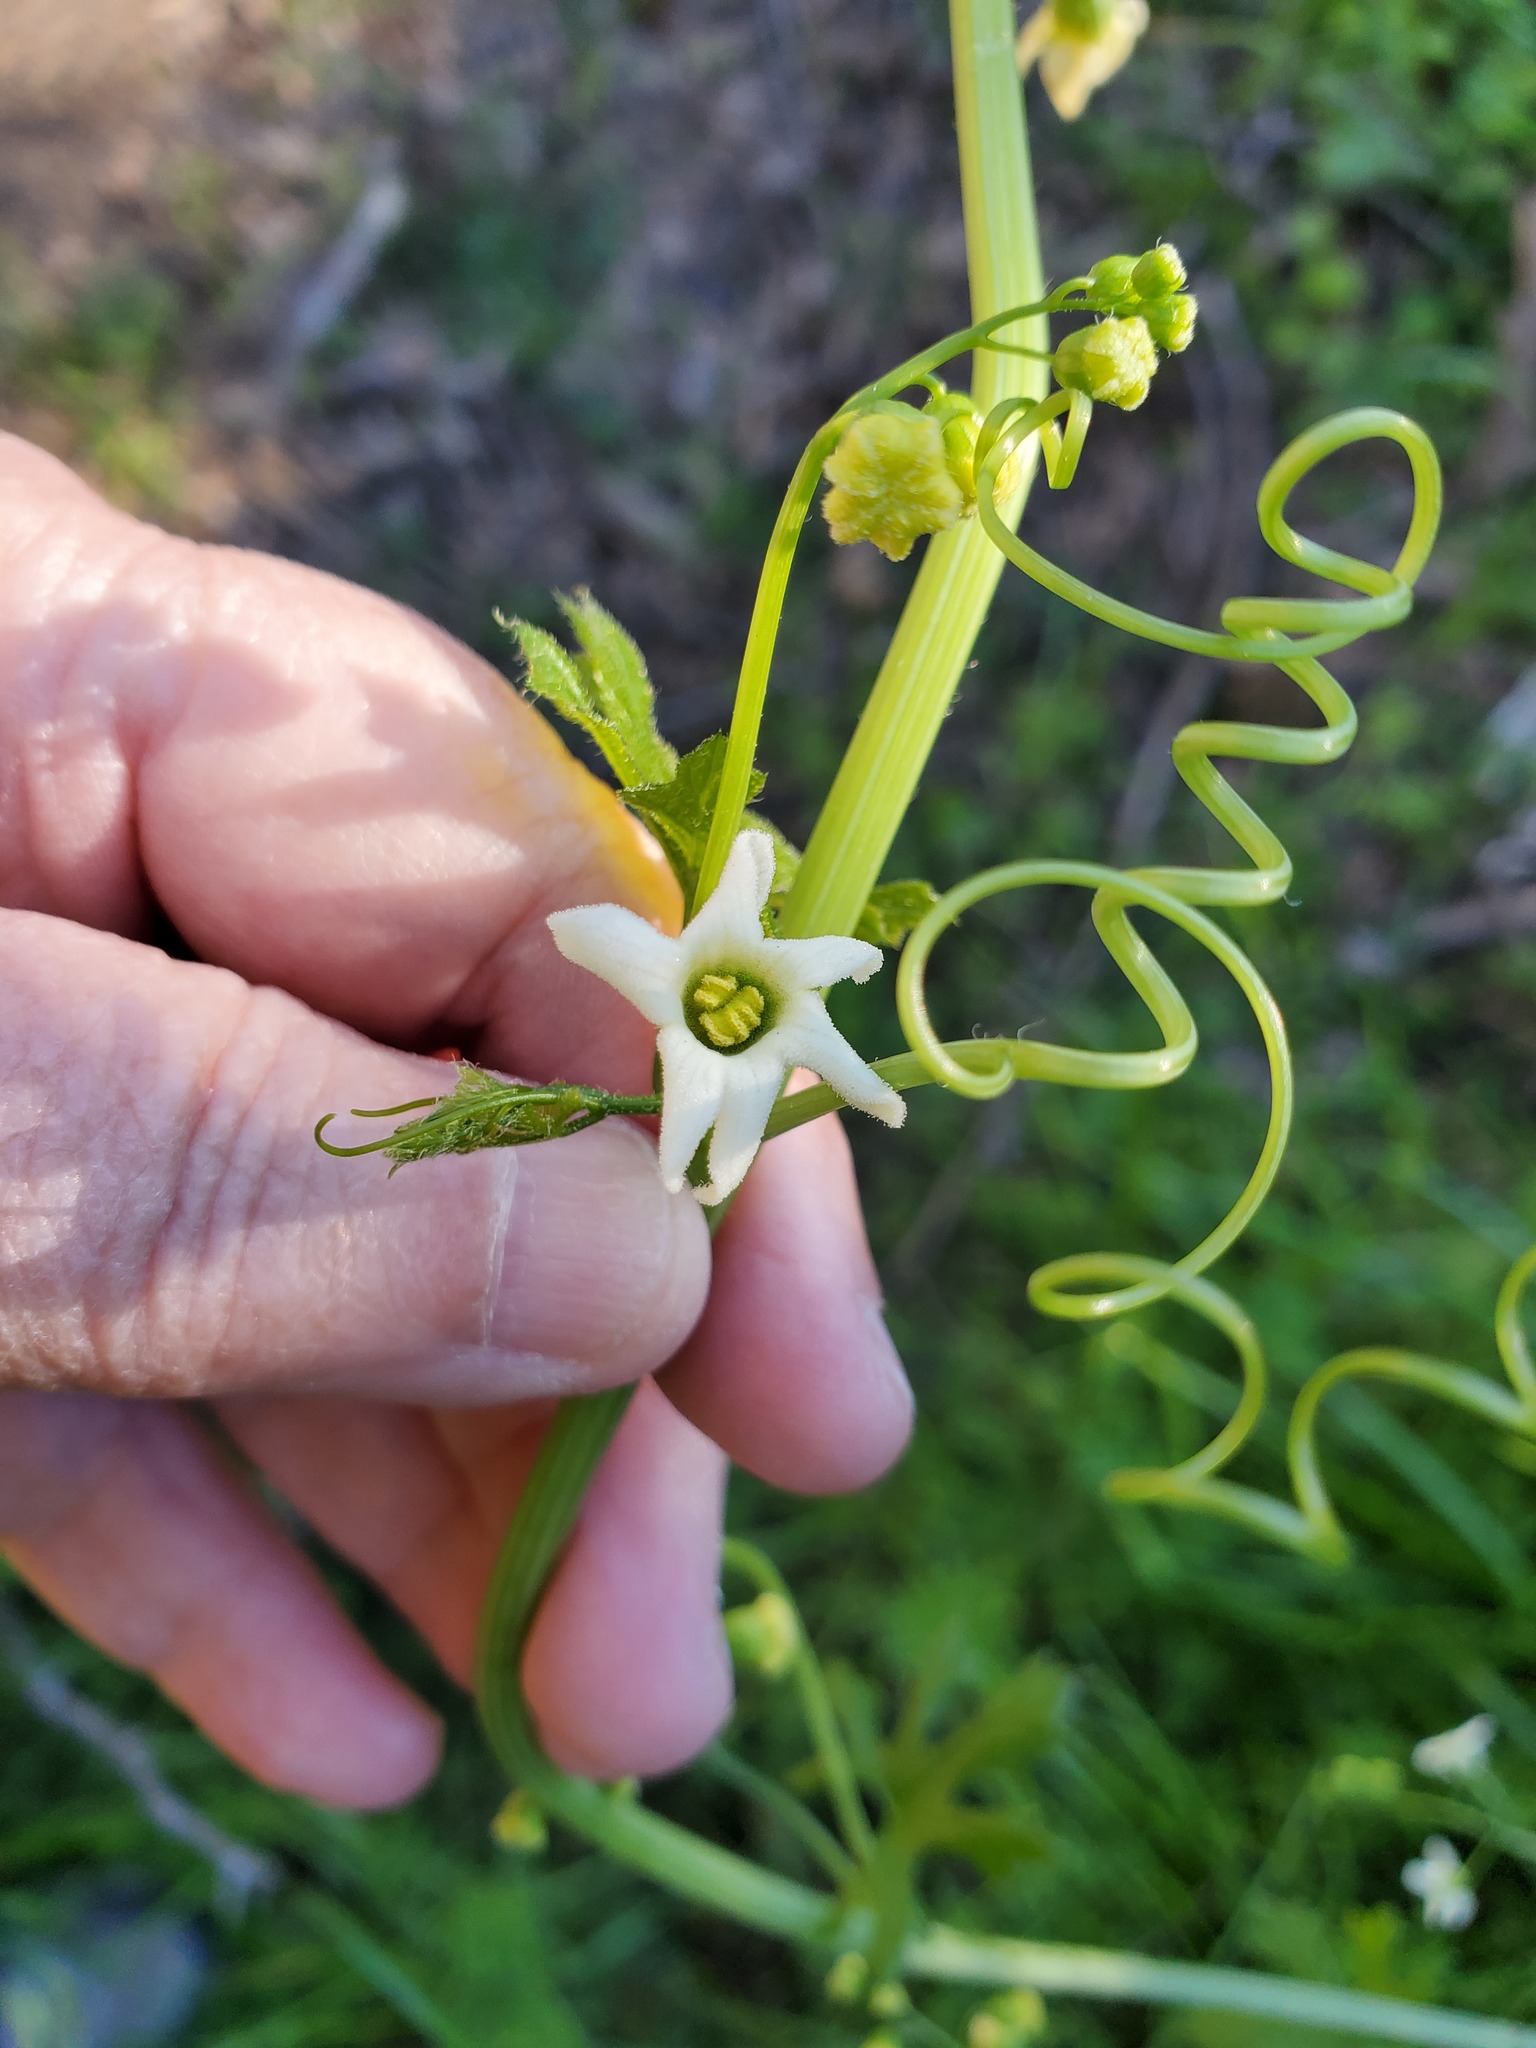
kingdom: Plantae
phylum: Tracheophyta
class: Magnoliopsida
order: Cucurbitales
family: Cucurbitaceae
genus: Marah
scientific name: Marah watsonii
